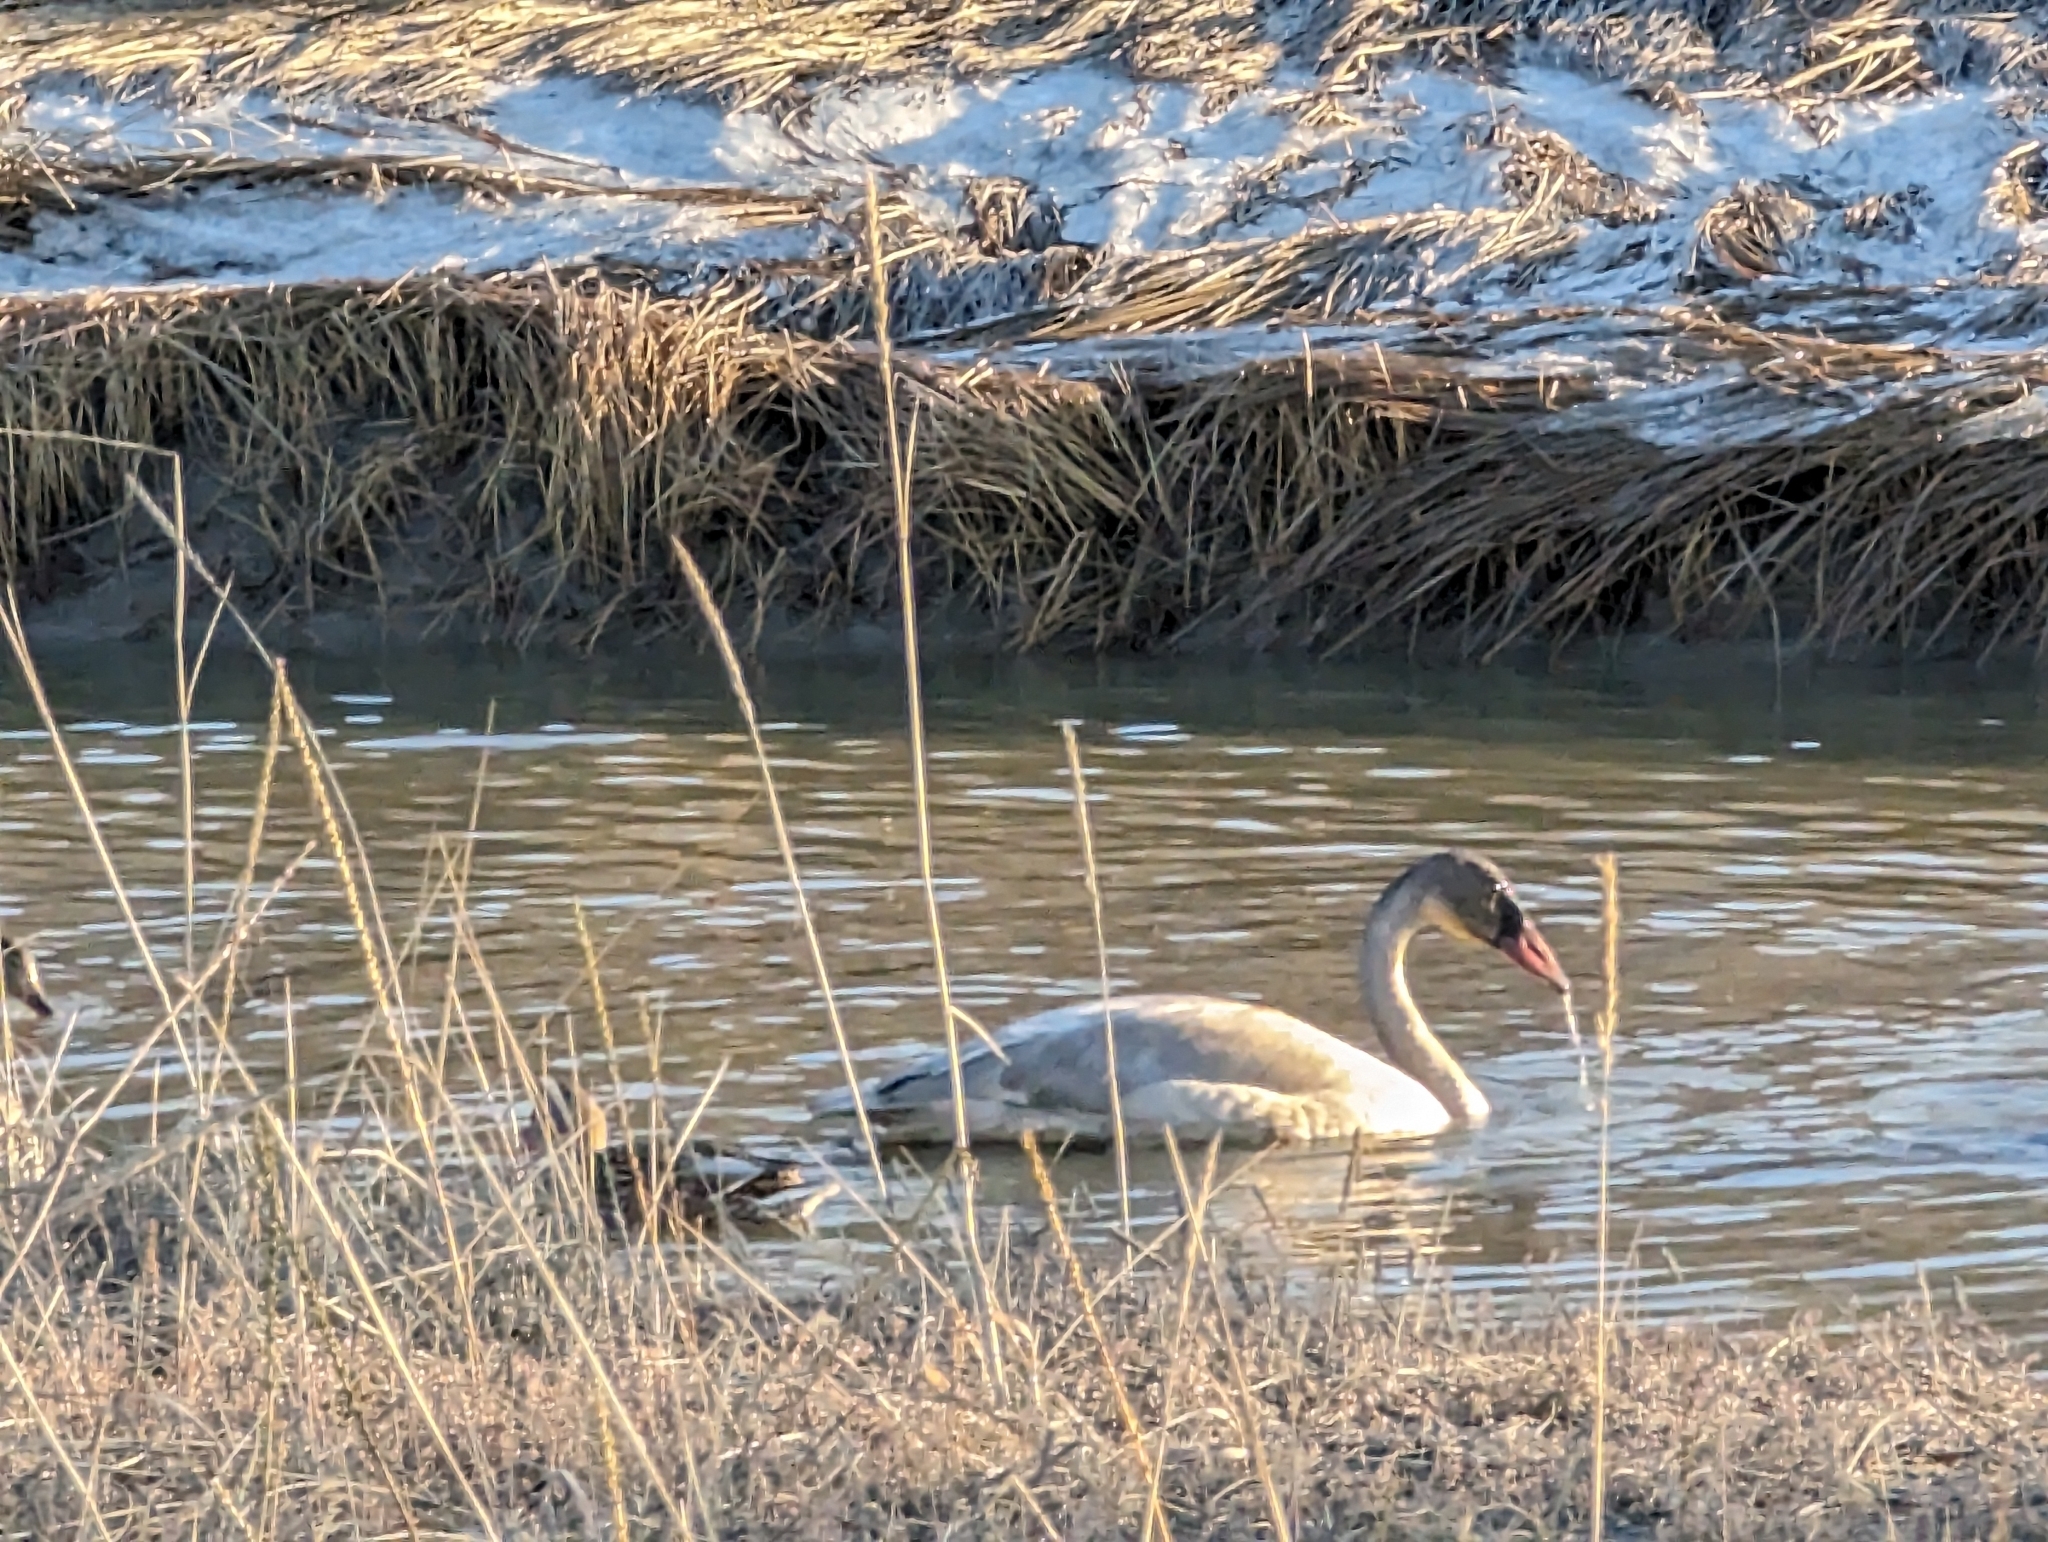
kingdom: Animalia
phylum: Chordata
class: Aves
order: Anseriformes
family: Anatidae
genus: Cygnus
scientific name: Cygnus buccinator
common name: Trumpeter swan
